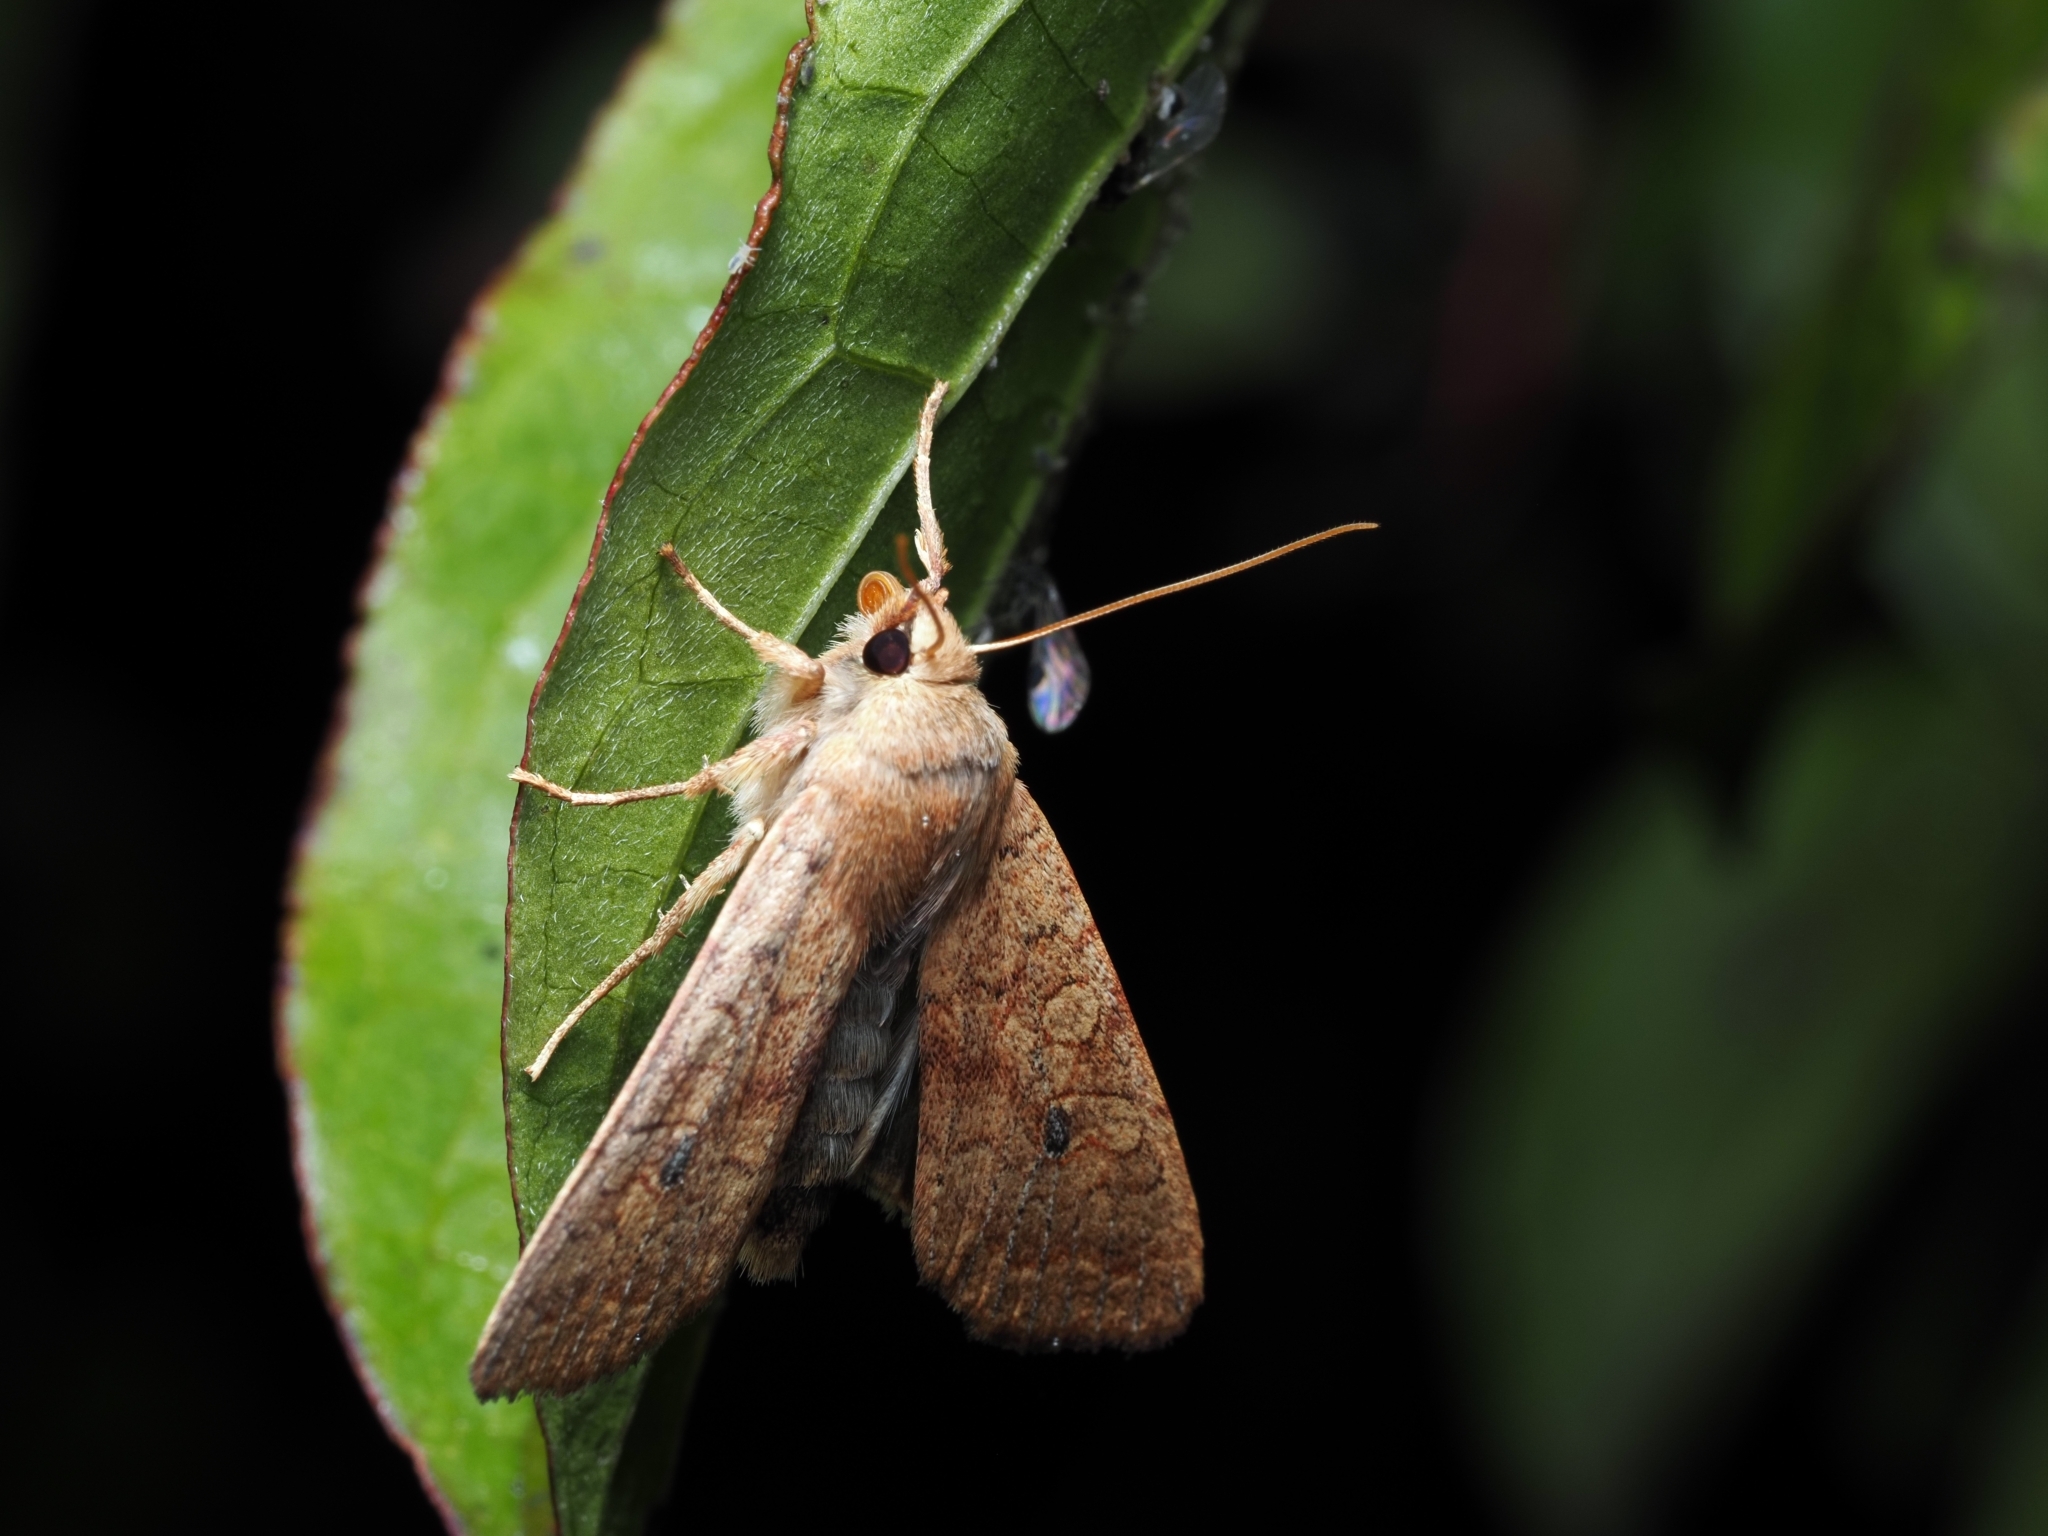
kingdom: Animalia
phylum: Arthropoda
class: Insecta
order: Lepidoptera
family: Noctuidae
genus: Sunira
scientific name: Sunira circellaris
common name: Brick
